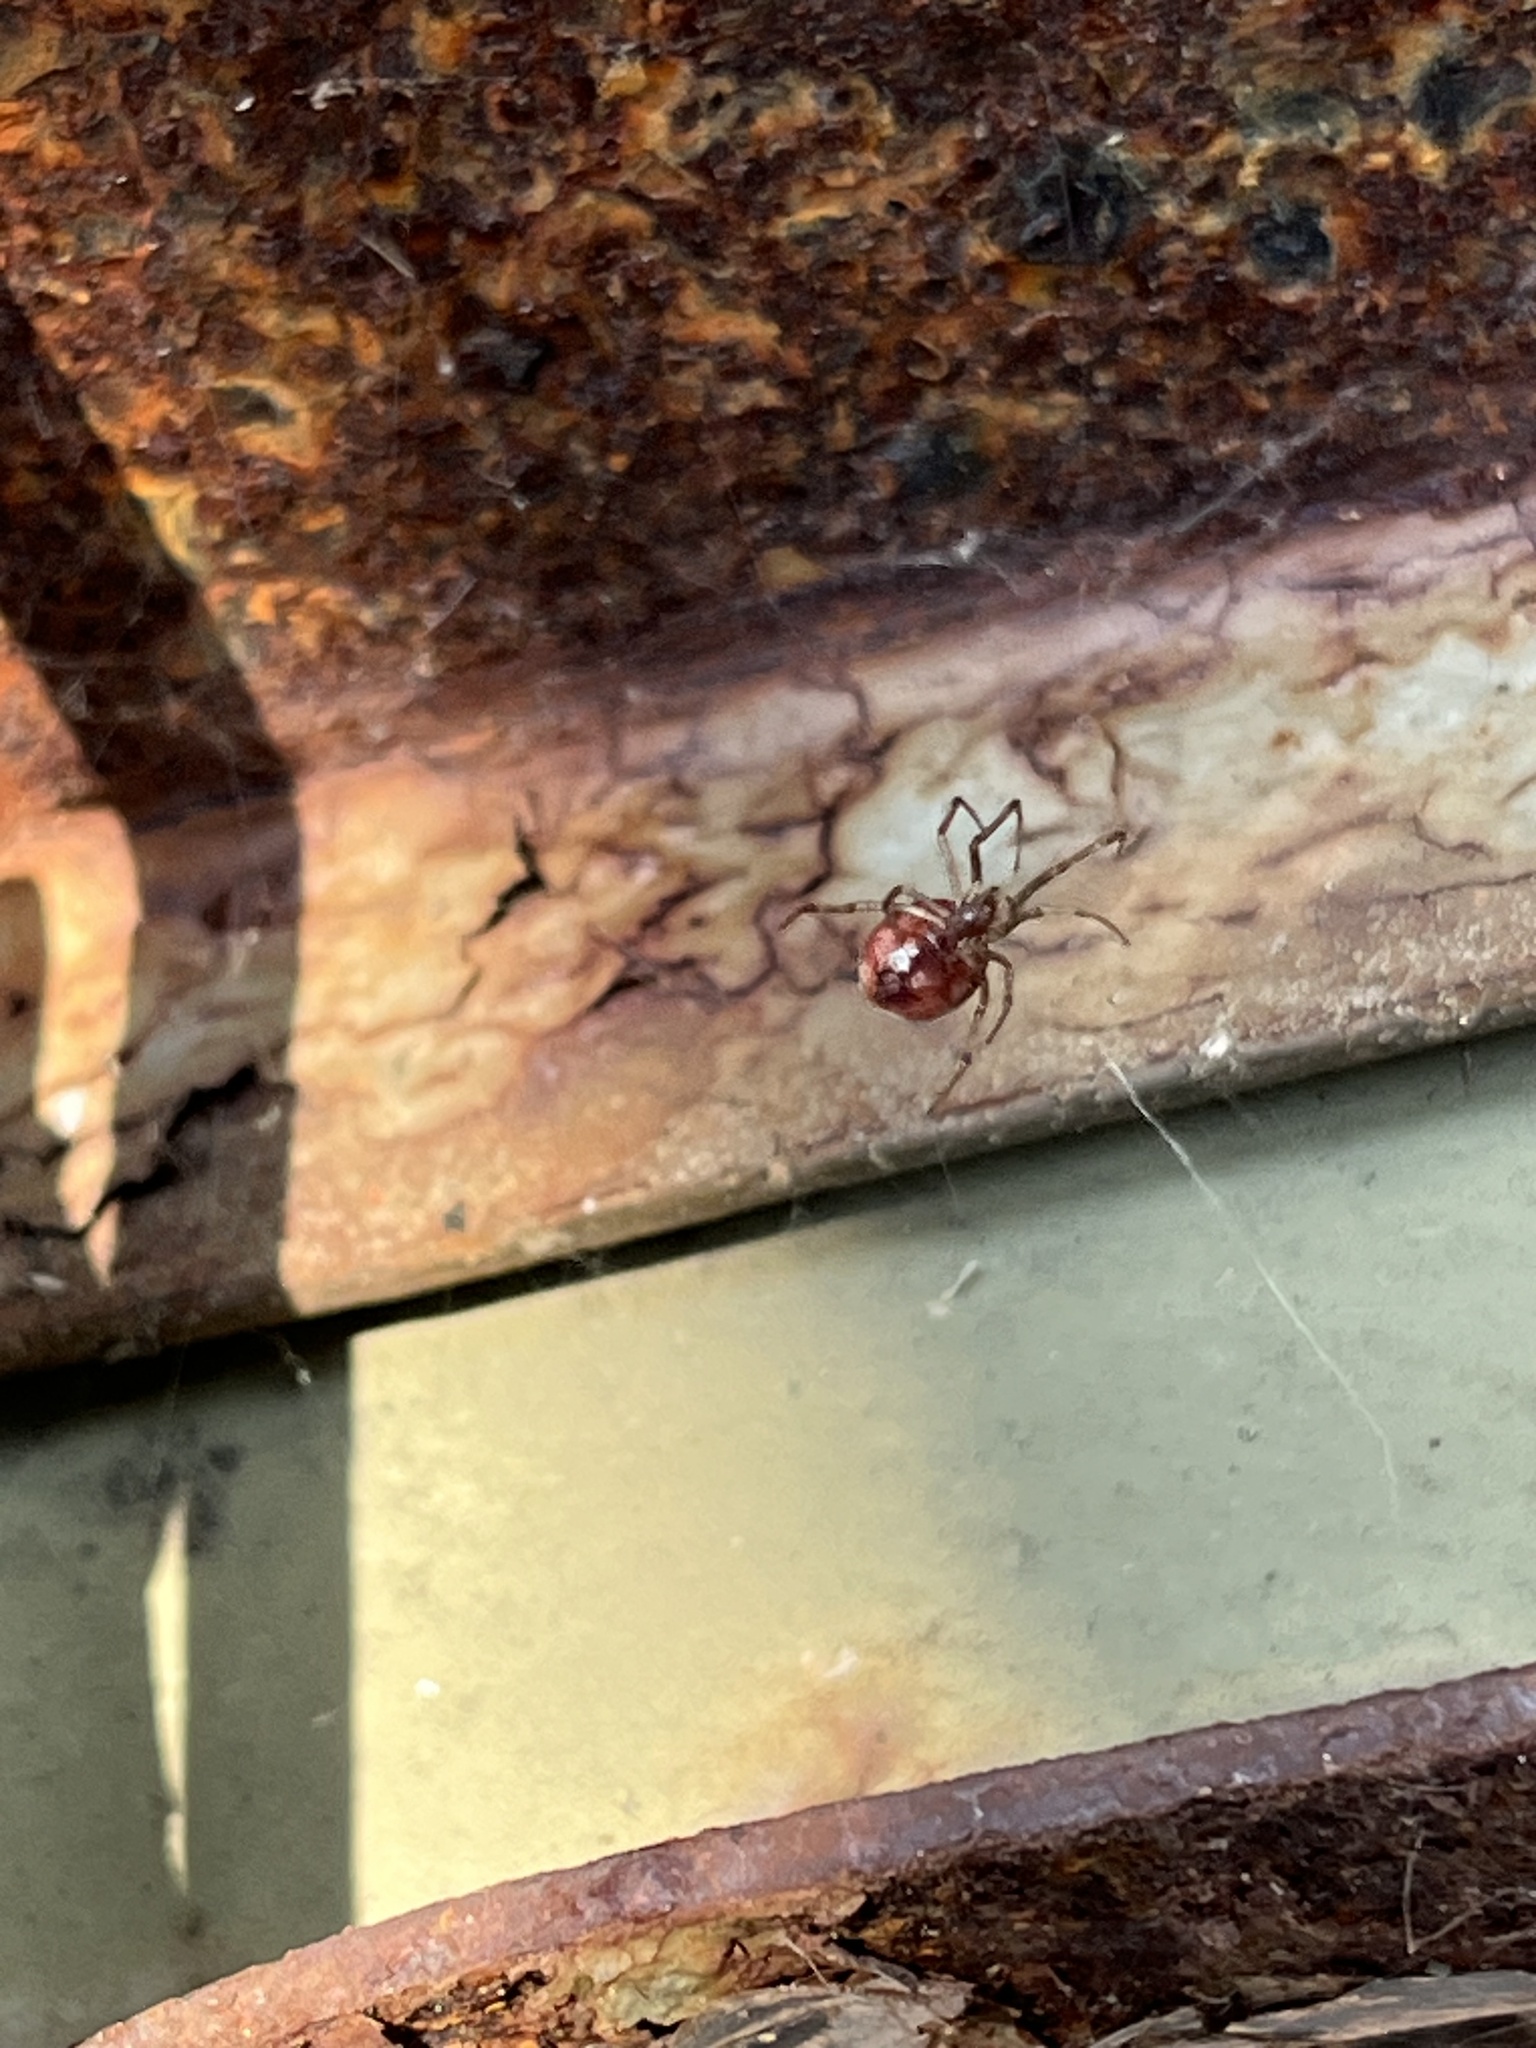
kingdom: Animalia
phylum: Arthropoda
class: Arachnida
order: Araneae
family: Theridiidae
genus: Steatoda
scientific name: Steatoda triangulosa
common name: Triangulate bud spider
